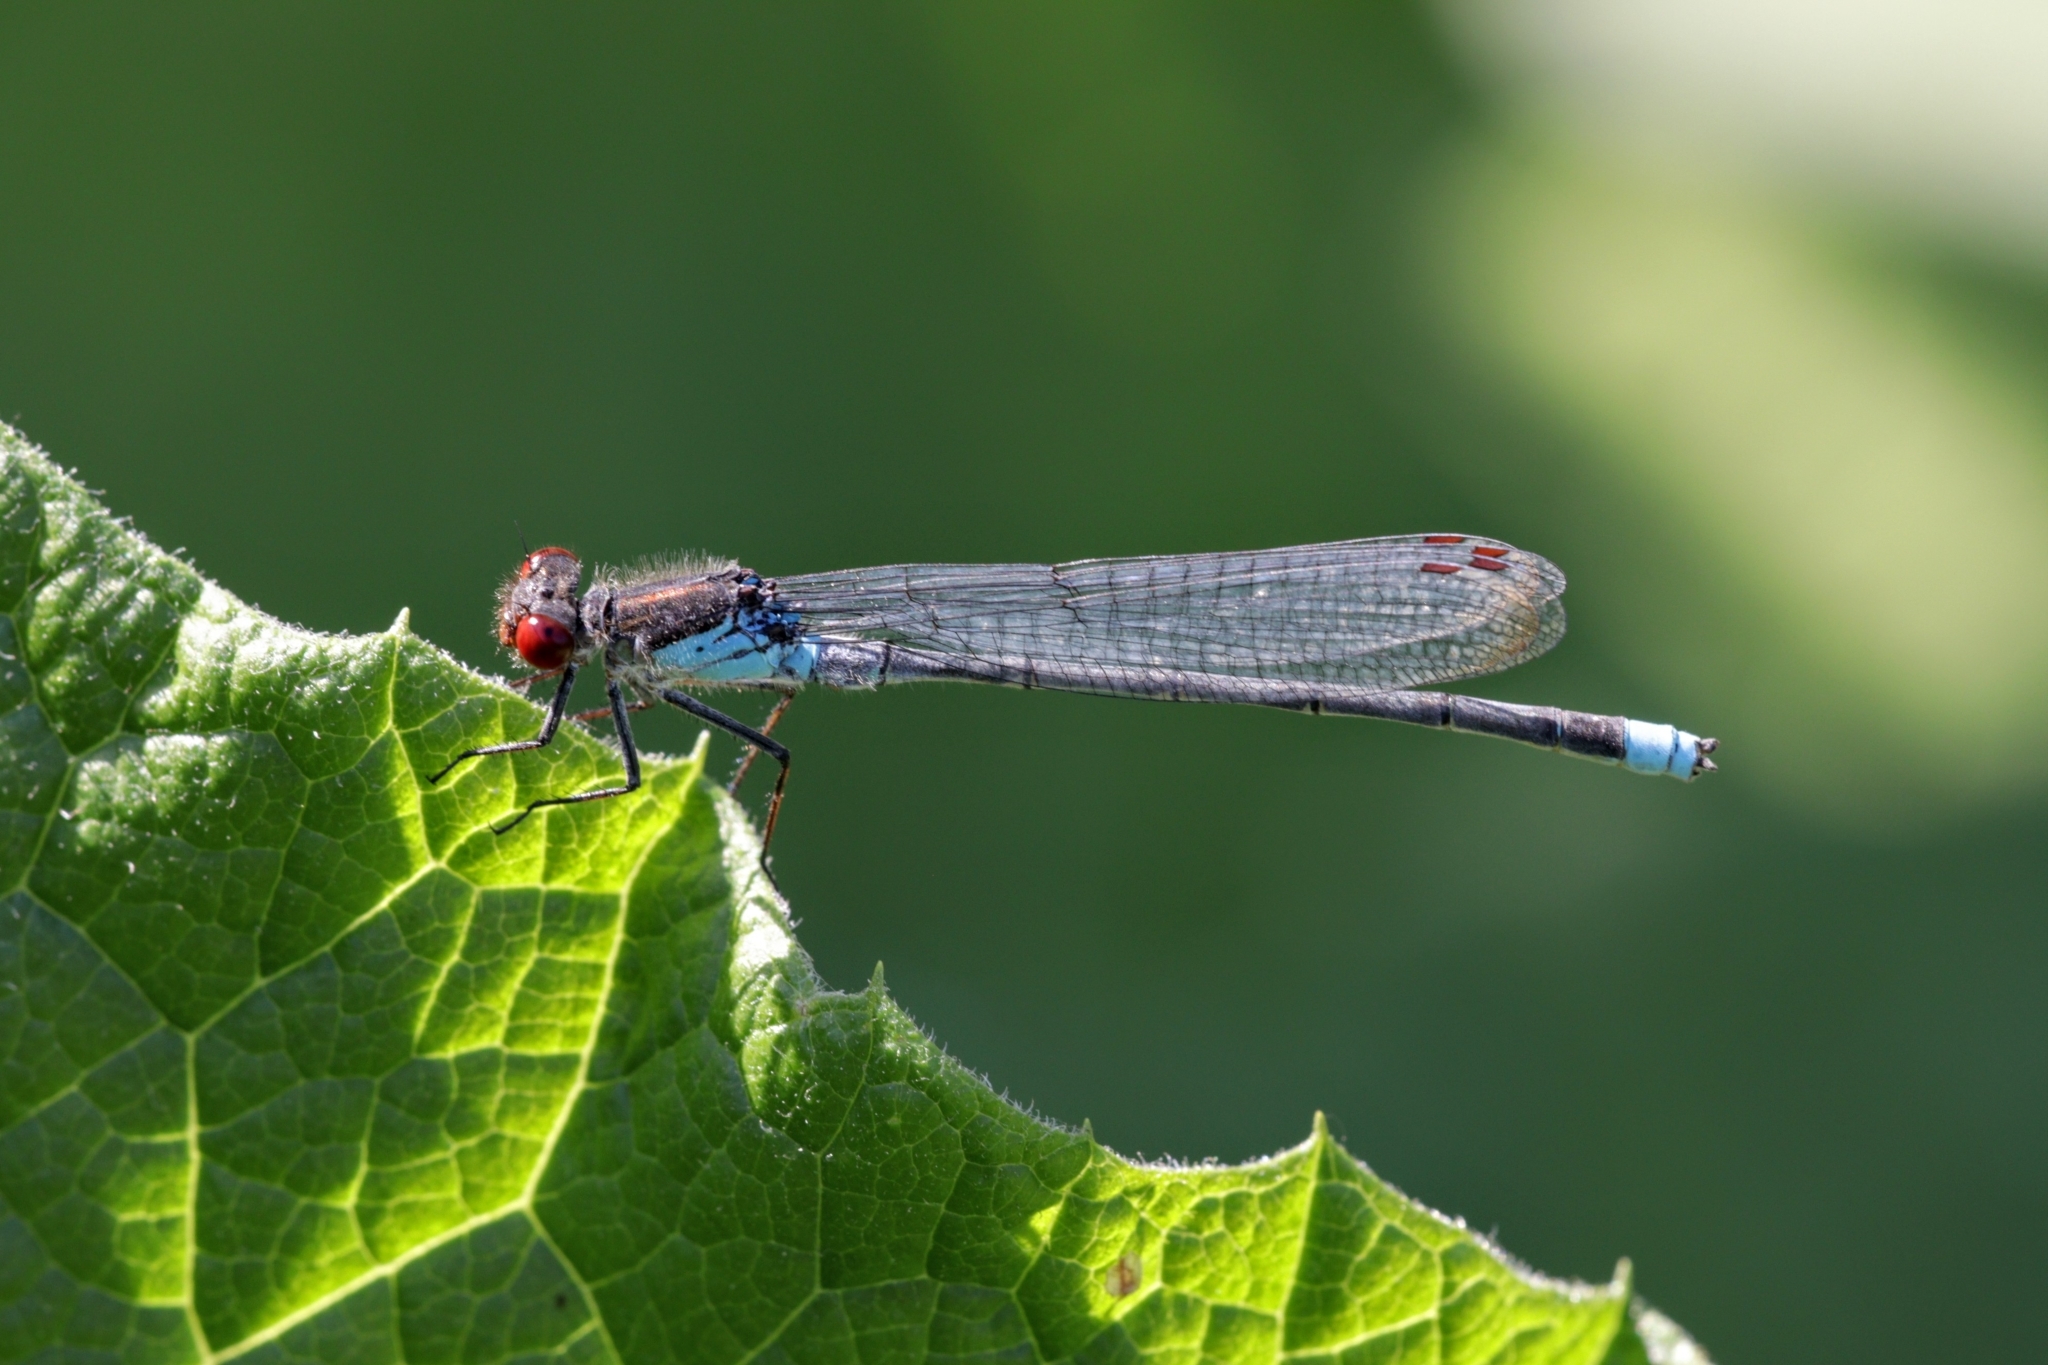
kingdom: Animalia
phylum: Arthropoda
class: Insecta
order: Odonata
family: Coenagrionidae
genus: Erythromma
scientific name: Erythromma najas
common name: Red-eyed damselfly
